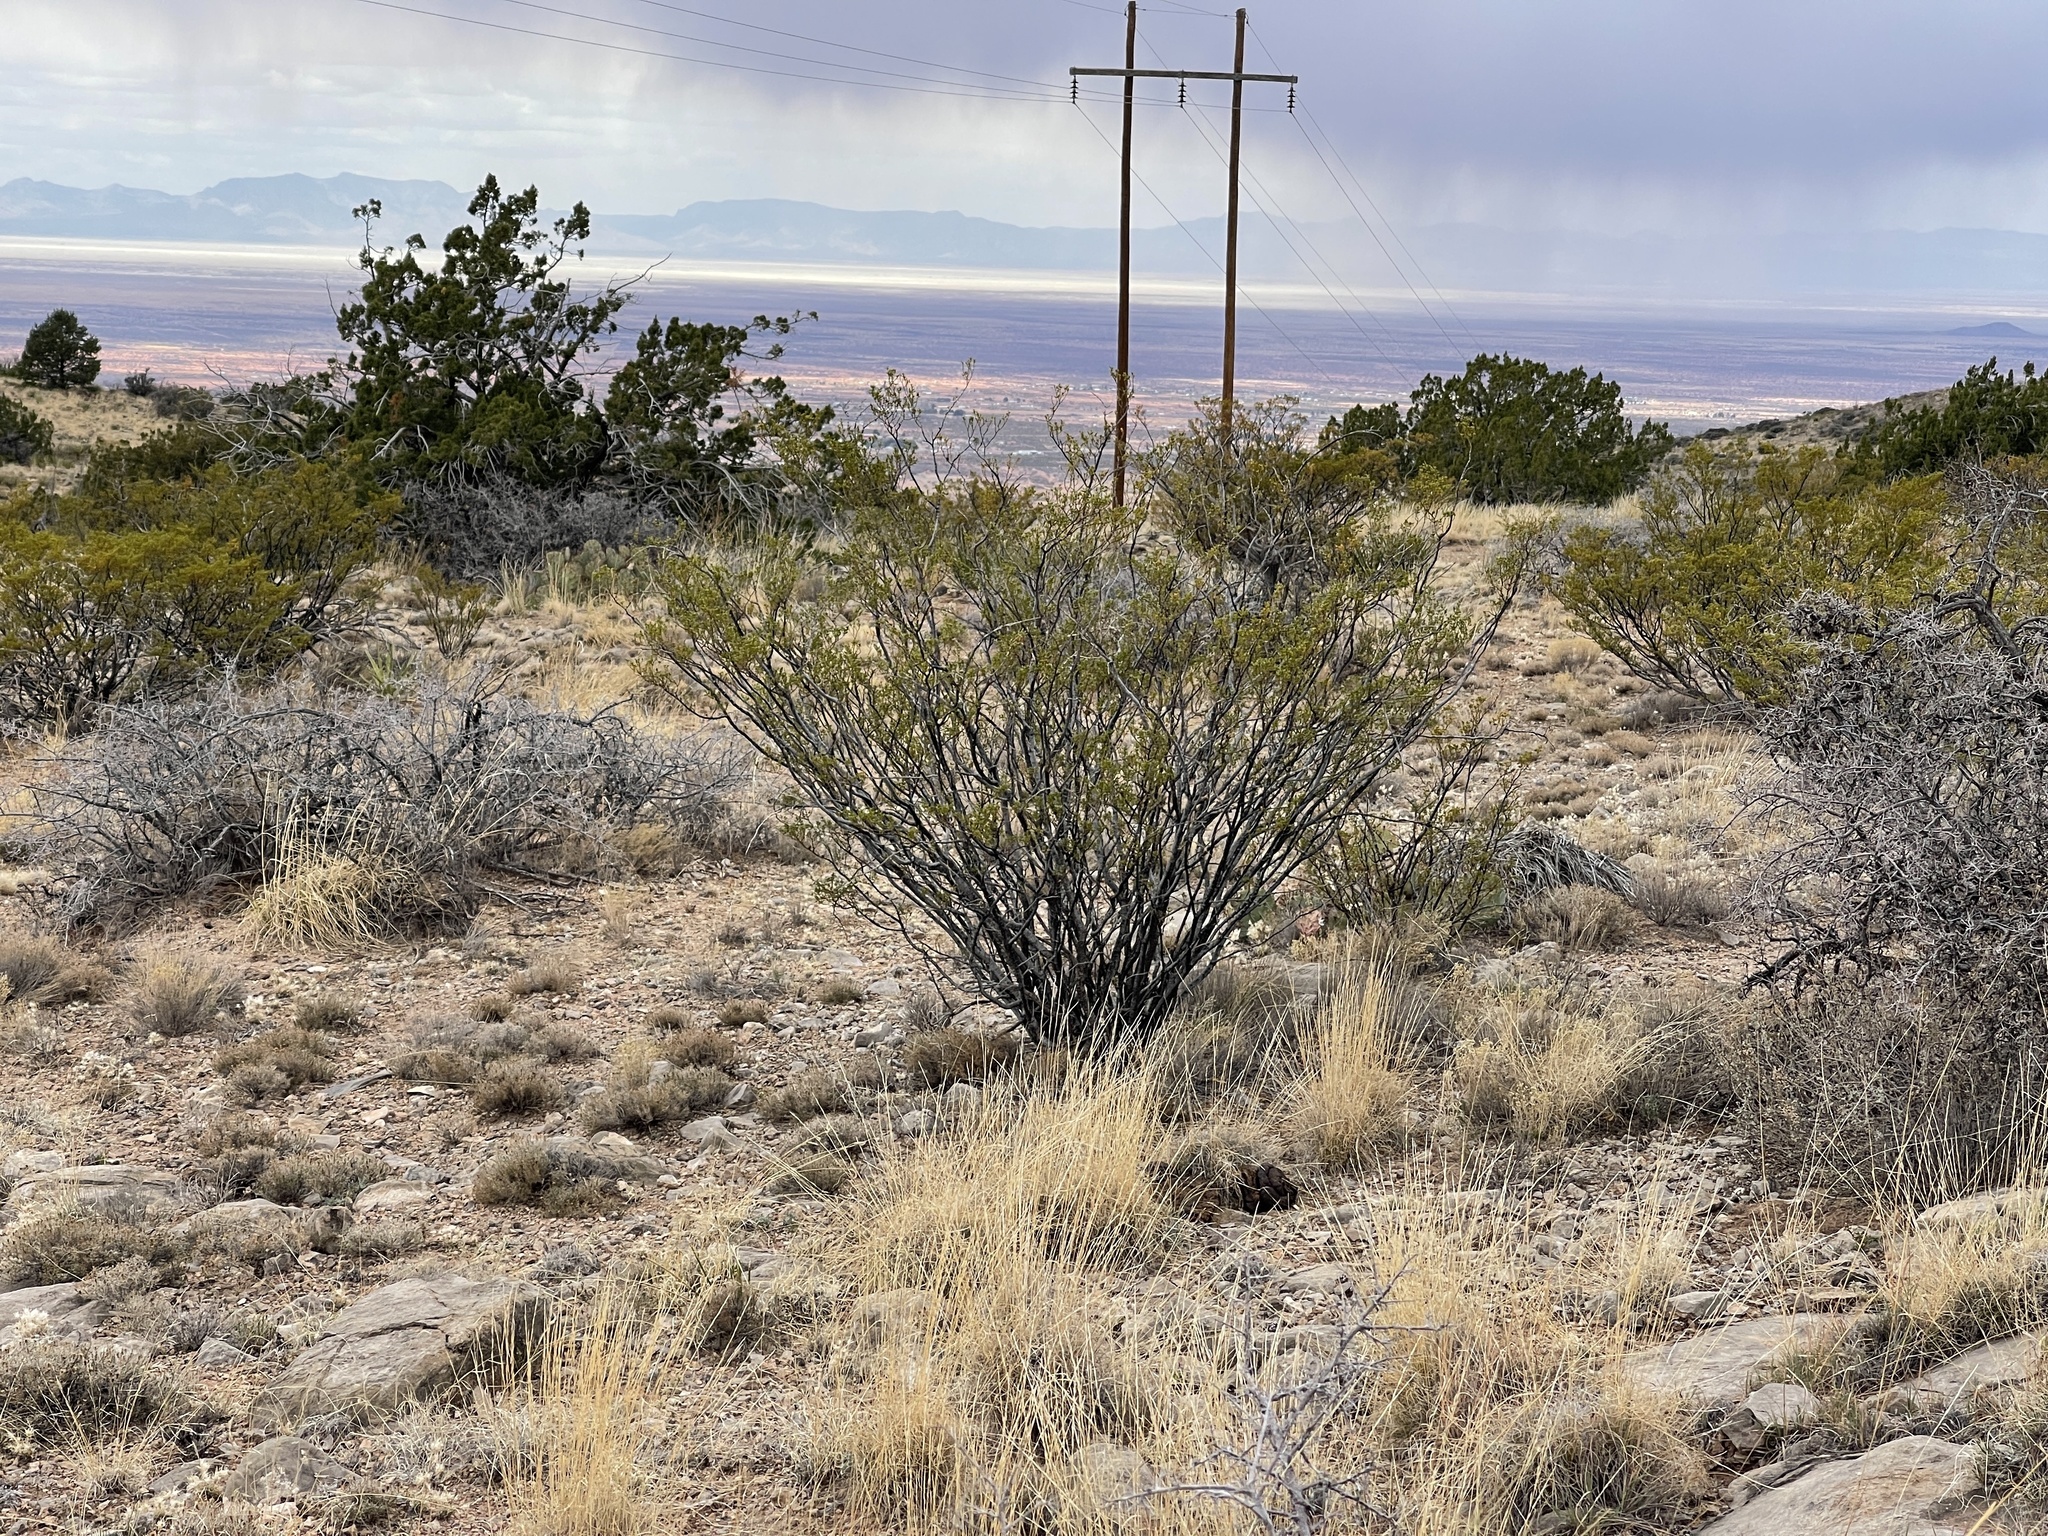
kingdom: Plantae
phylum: Tracheophyta
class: Magnoliopsida
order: Zygophyllales
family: Zygophyllaceae
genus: Larrea
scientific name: Larrea tridentata
